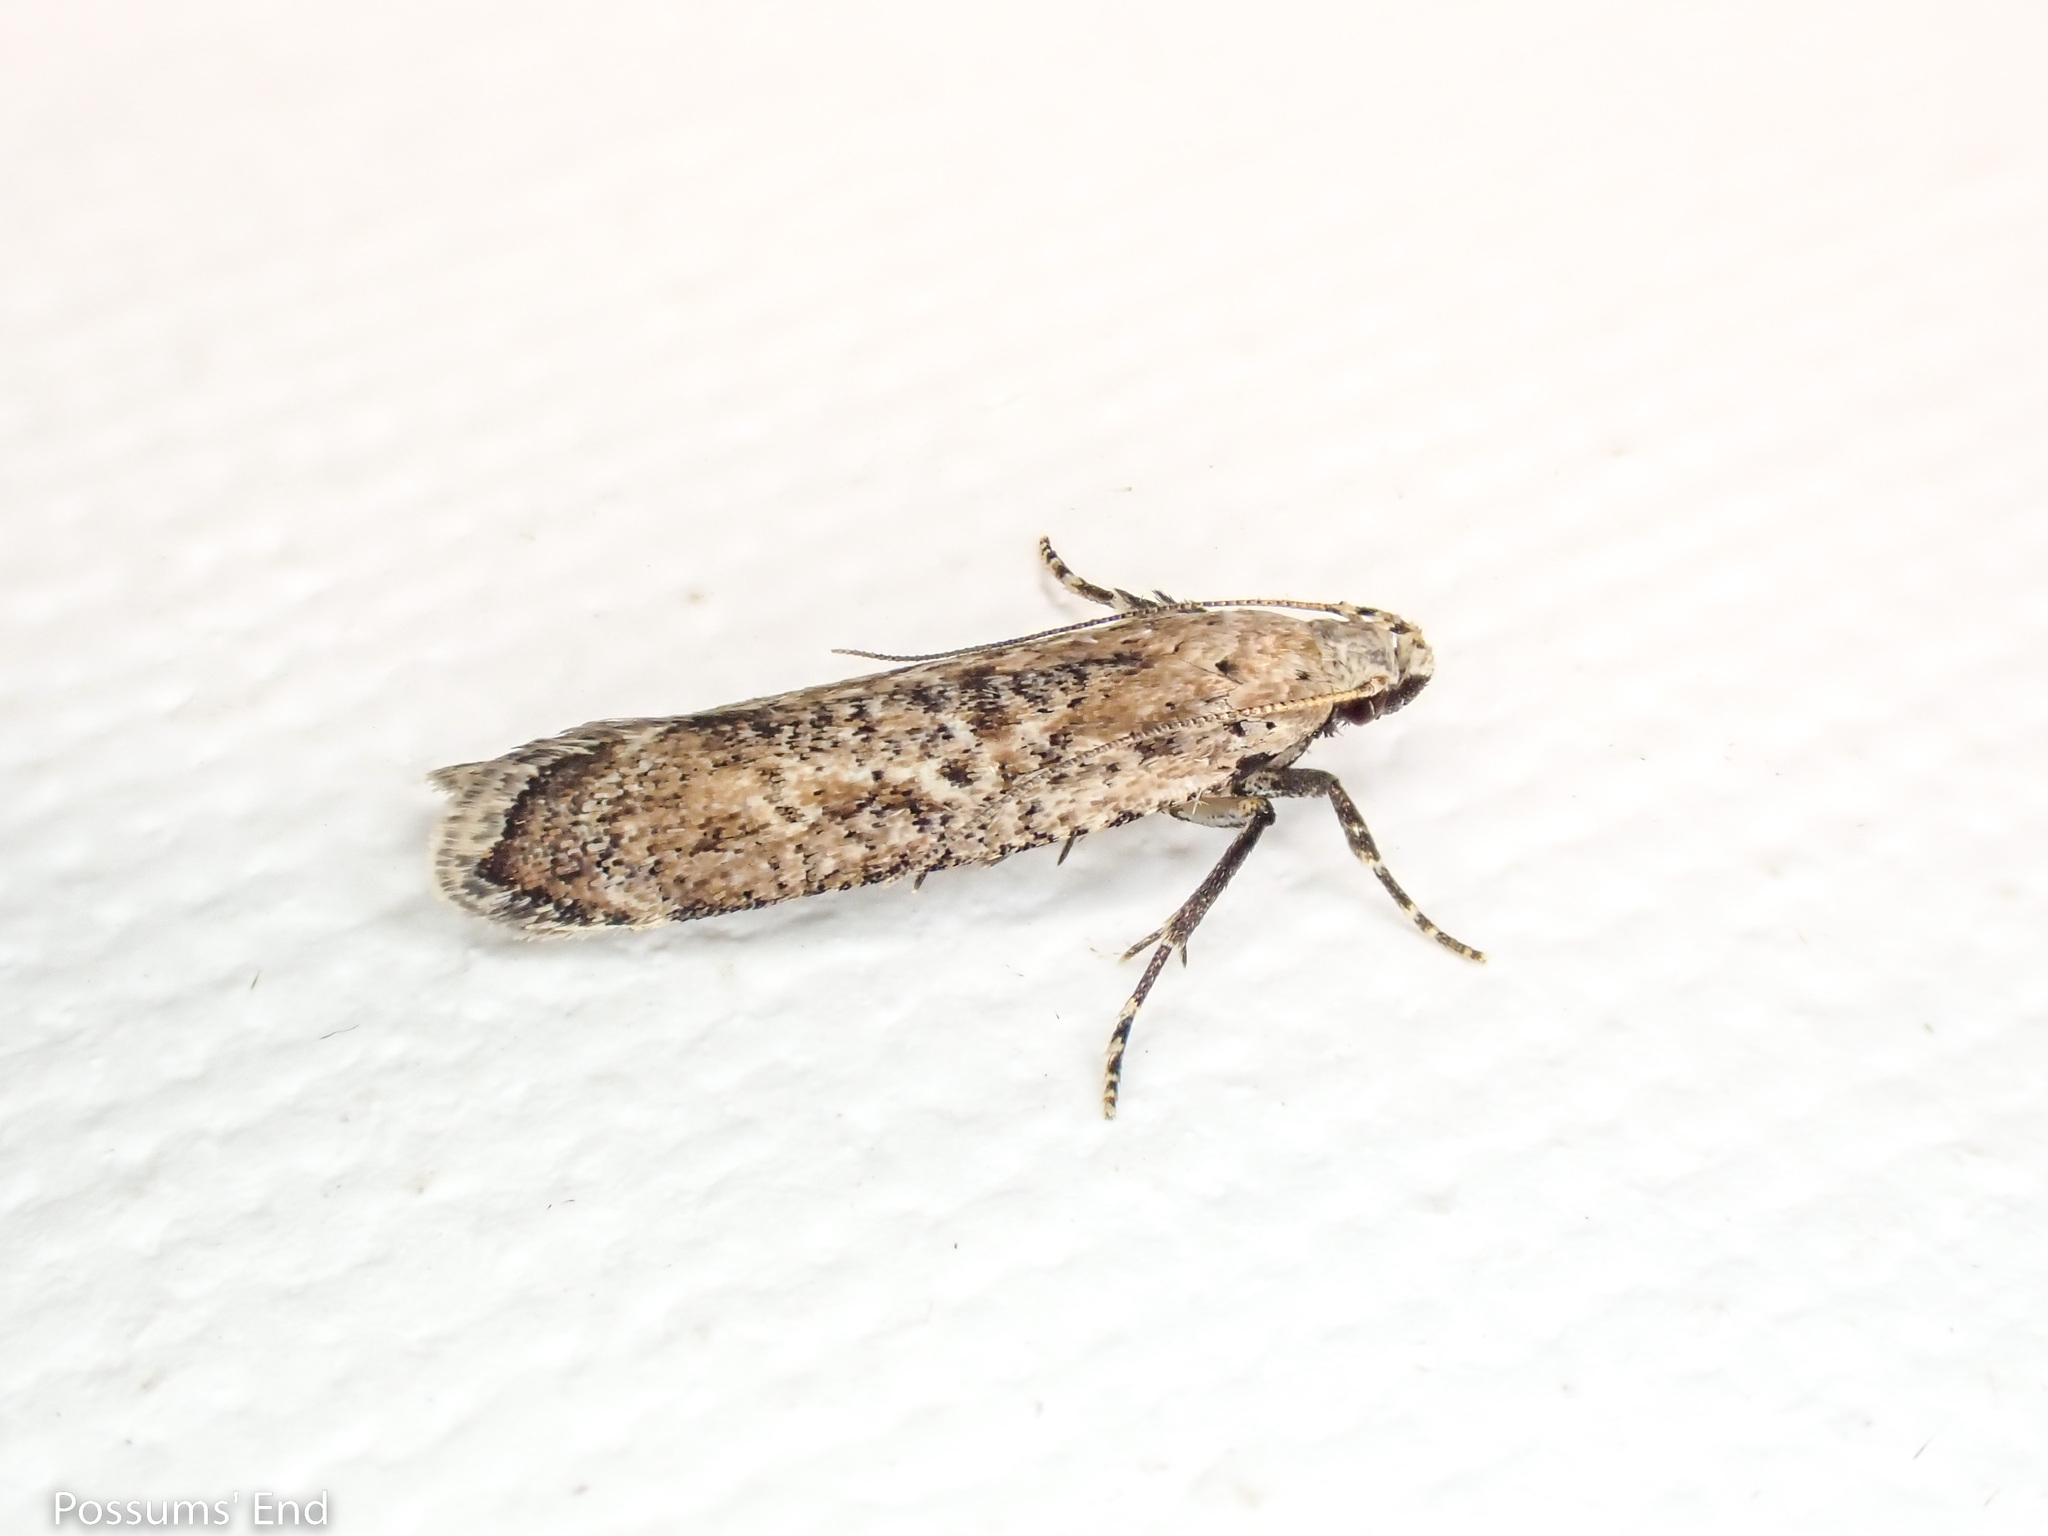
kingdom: Animalia
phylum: Arthropoda
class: Insecta
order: Lepidoptera
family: Gelechiidae
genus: Anisoplaca
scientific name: Anisoplaca achyrota
